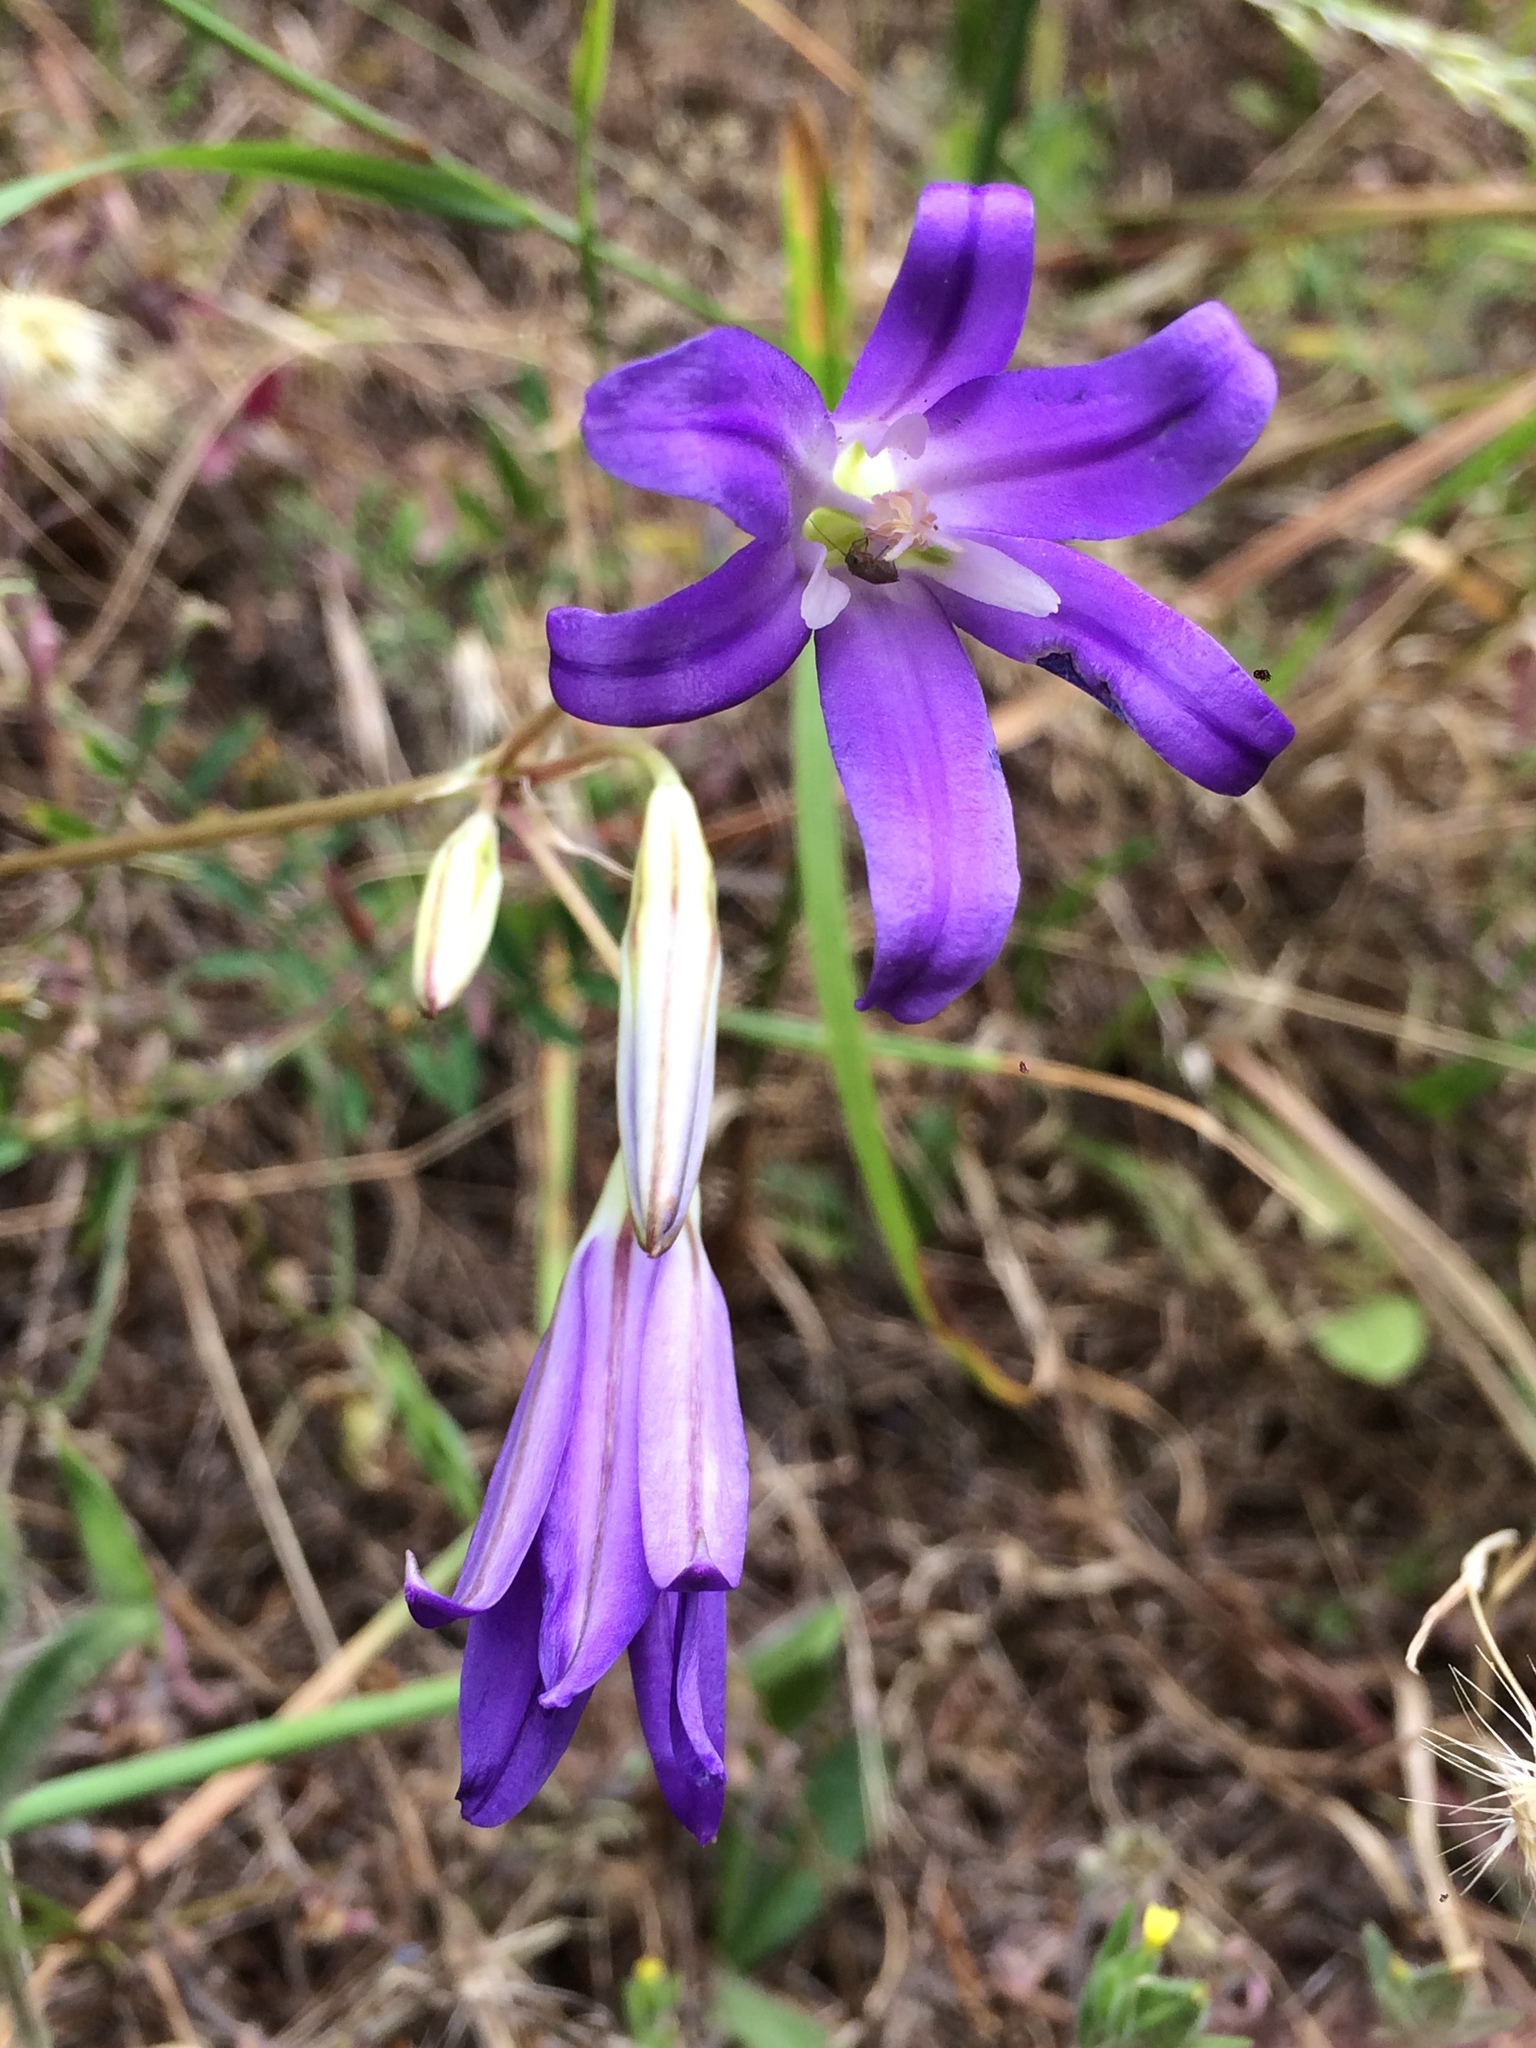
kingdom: Plantae
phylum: Tracheophyta
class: Liliopsida
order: Asparagales
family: Asparagaceae
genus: Brodiaea
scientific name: Brodiaea elegans
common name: Elegant cluster-lily
